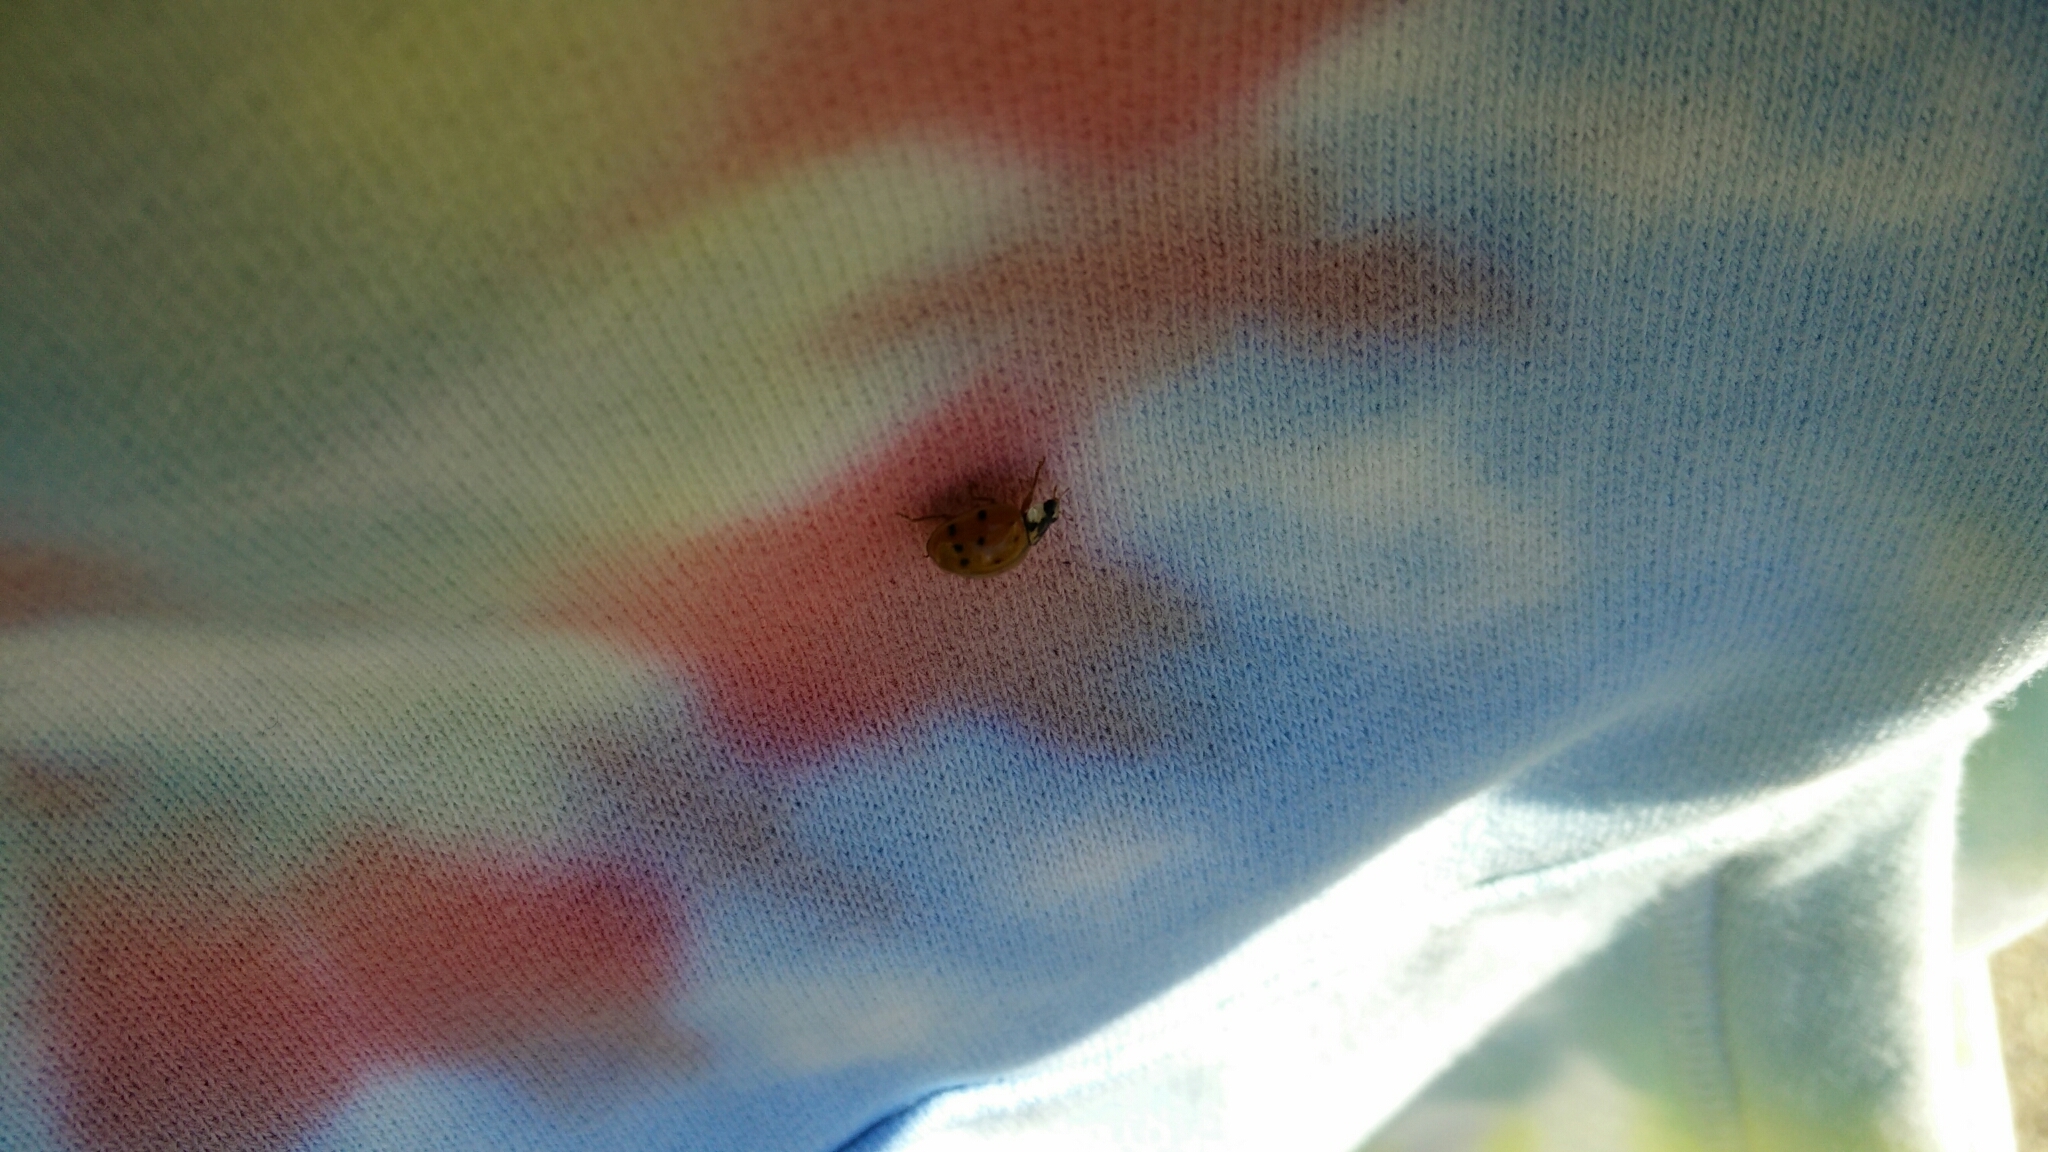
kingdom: Animalia
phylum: Arthropoda
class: Insecta
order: Coleoptera
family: Coccinellidae
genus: Harmonia
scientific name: Harmonia axyridis
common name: Harlequin ladybird
